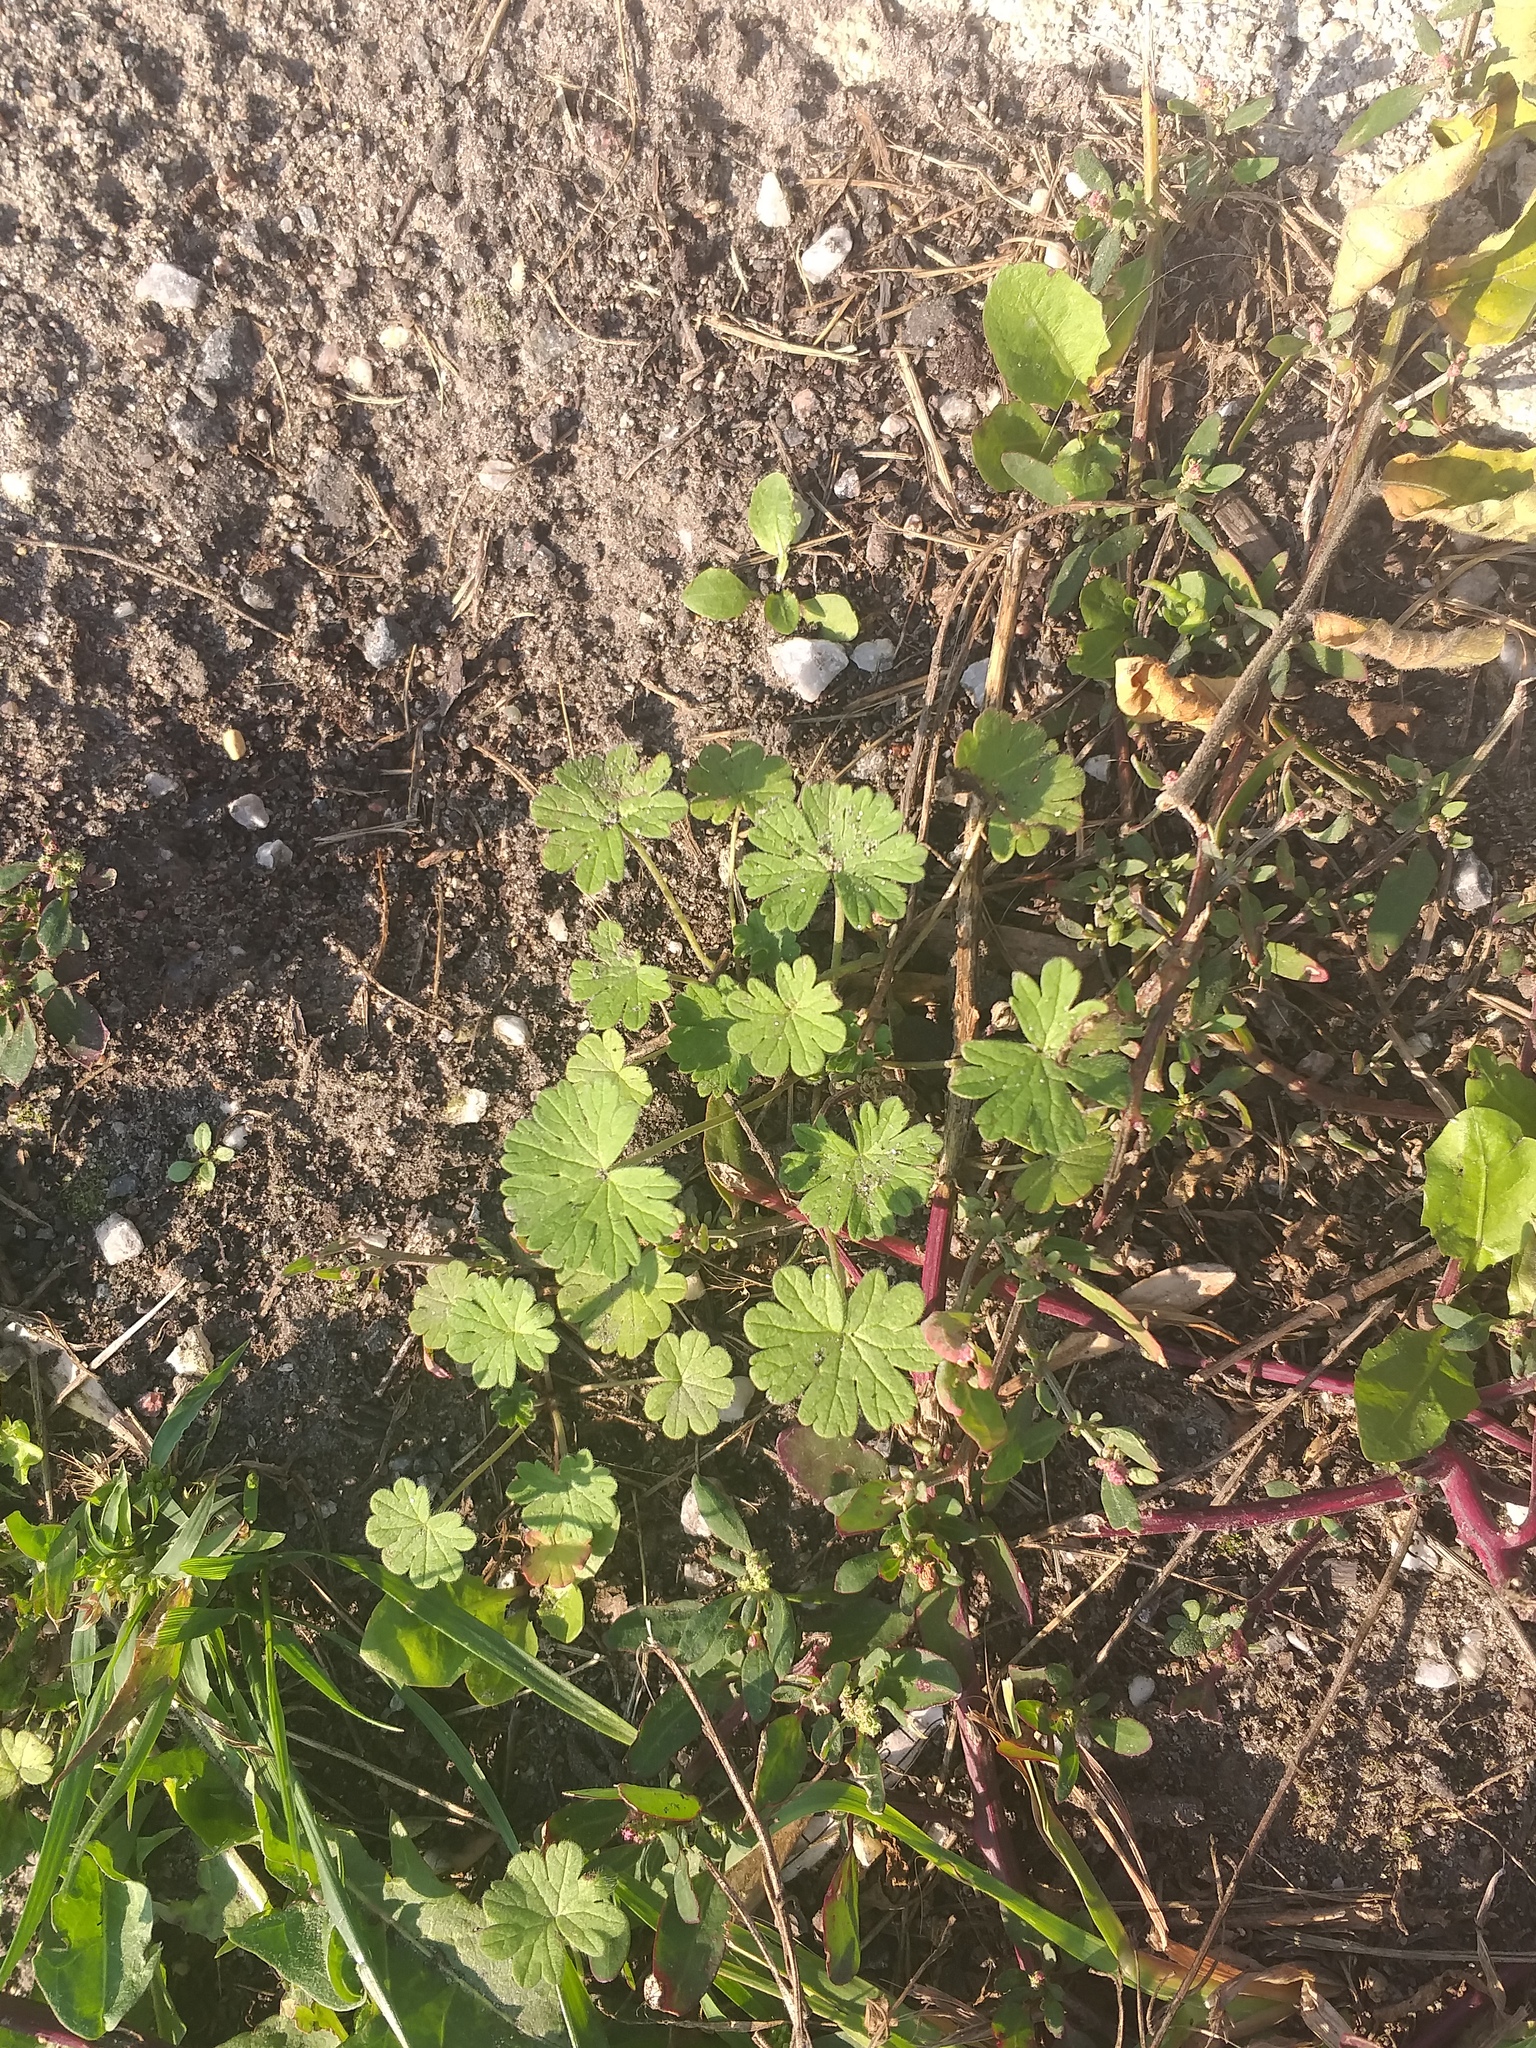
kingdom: Plantae
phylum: Tracheophyta
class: Magnoliopsida
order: Geraniales
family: Geraniaceae
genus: Geranium
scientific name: Geranium pusillum
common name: Small geranium
